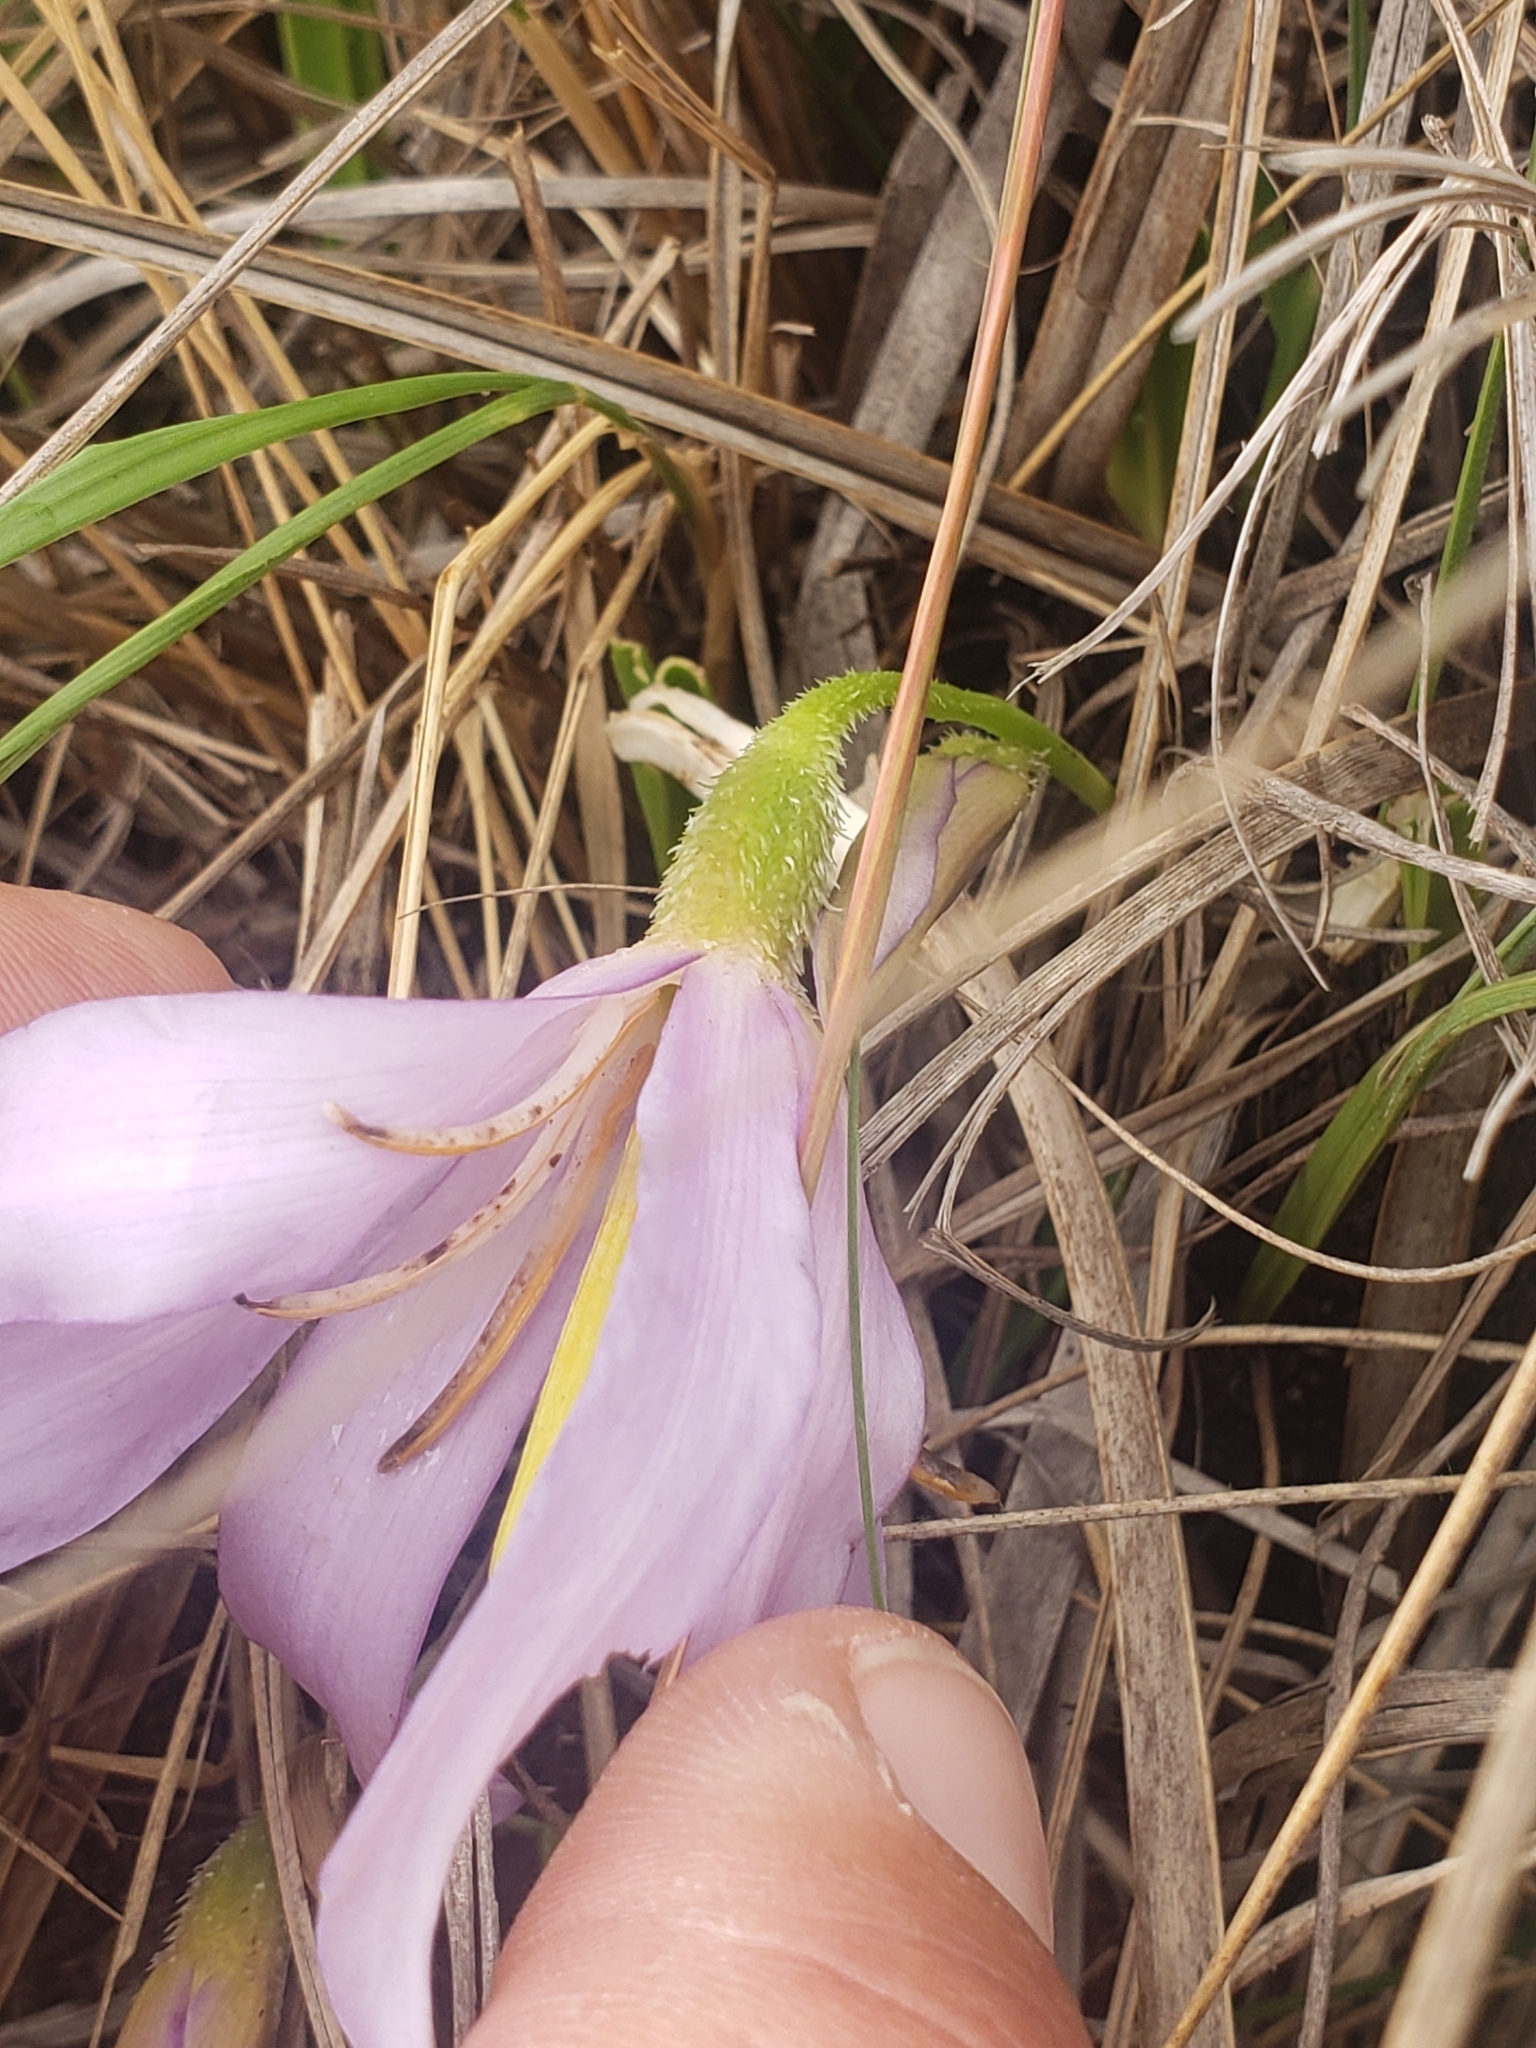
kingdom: Plantae
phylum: Tracheophyta
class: Liliopsida
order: Pandanales
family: Velloziaceae
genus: Xerophyta
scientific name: Xerophyta retinervis
